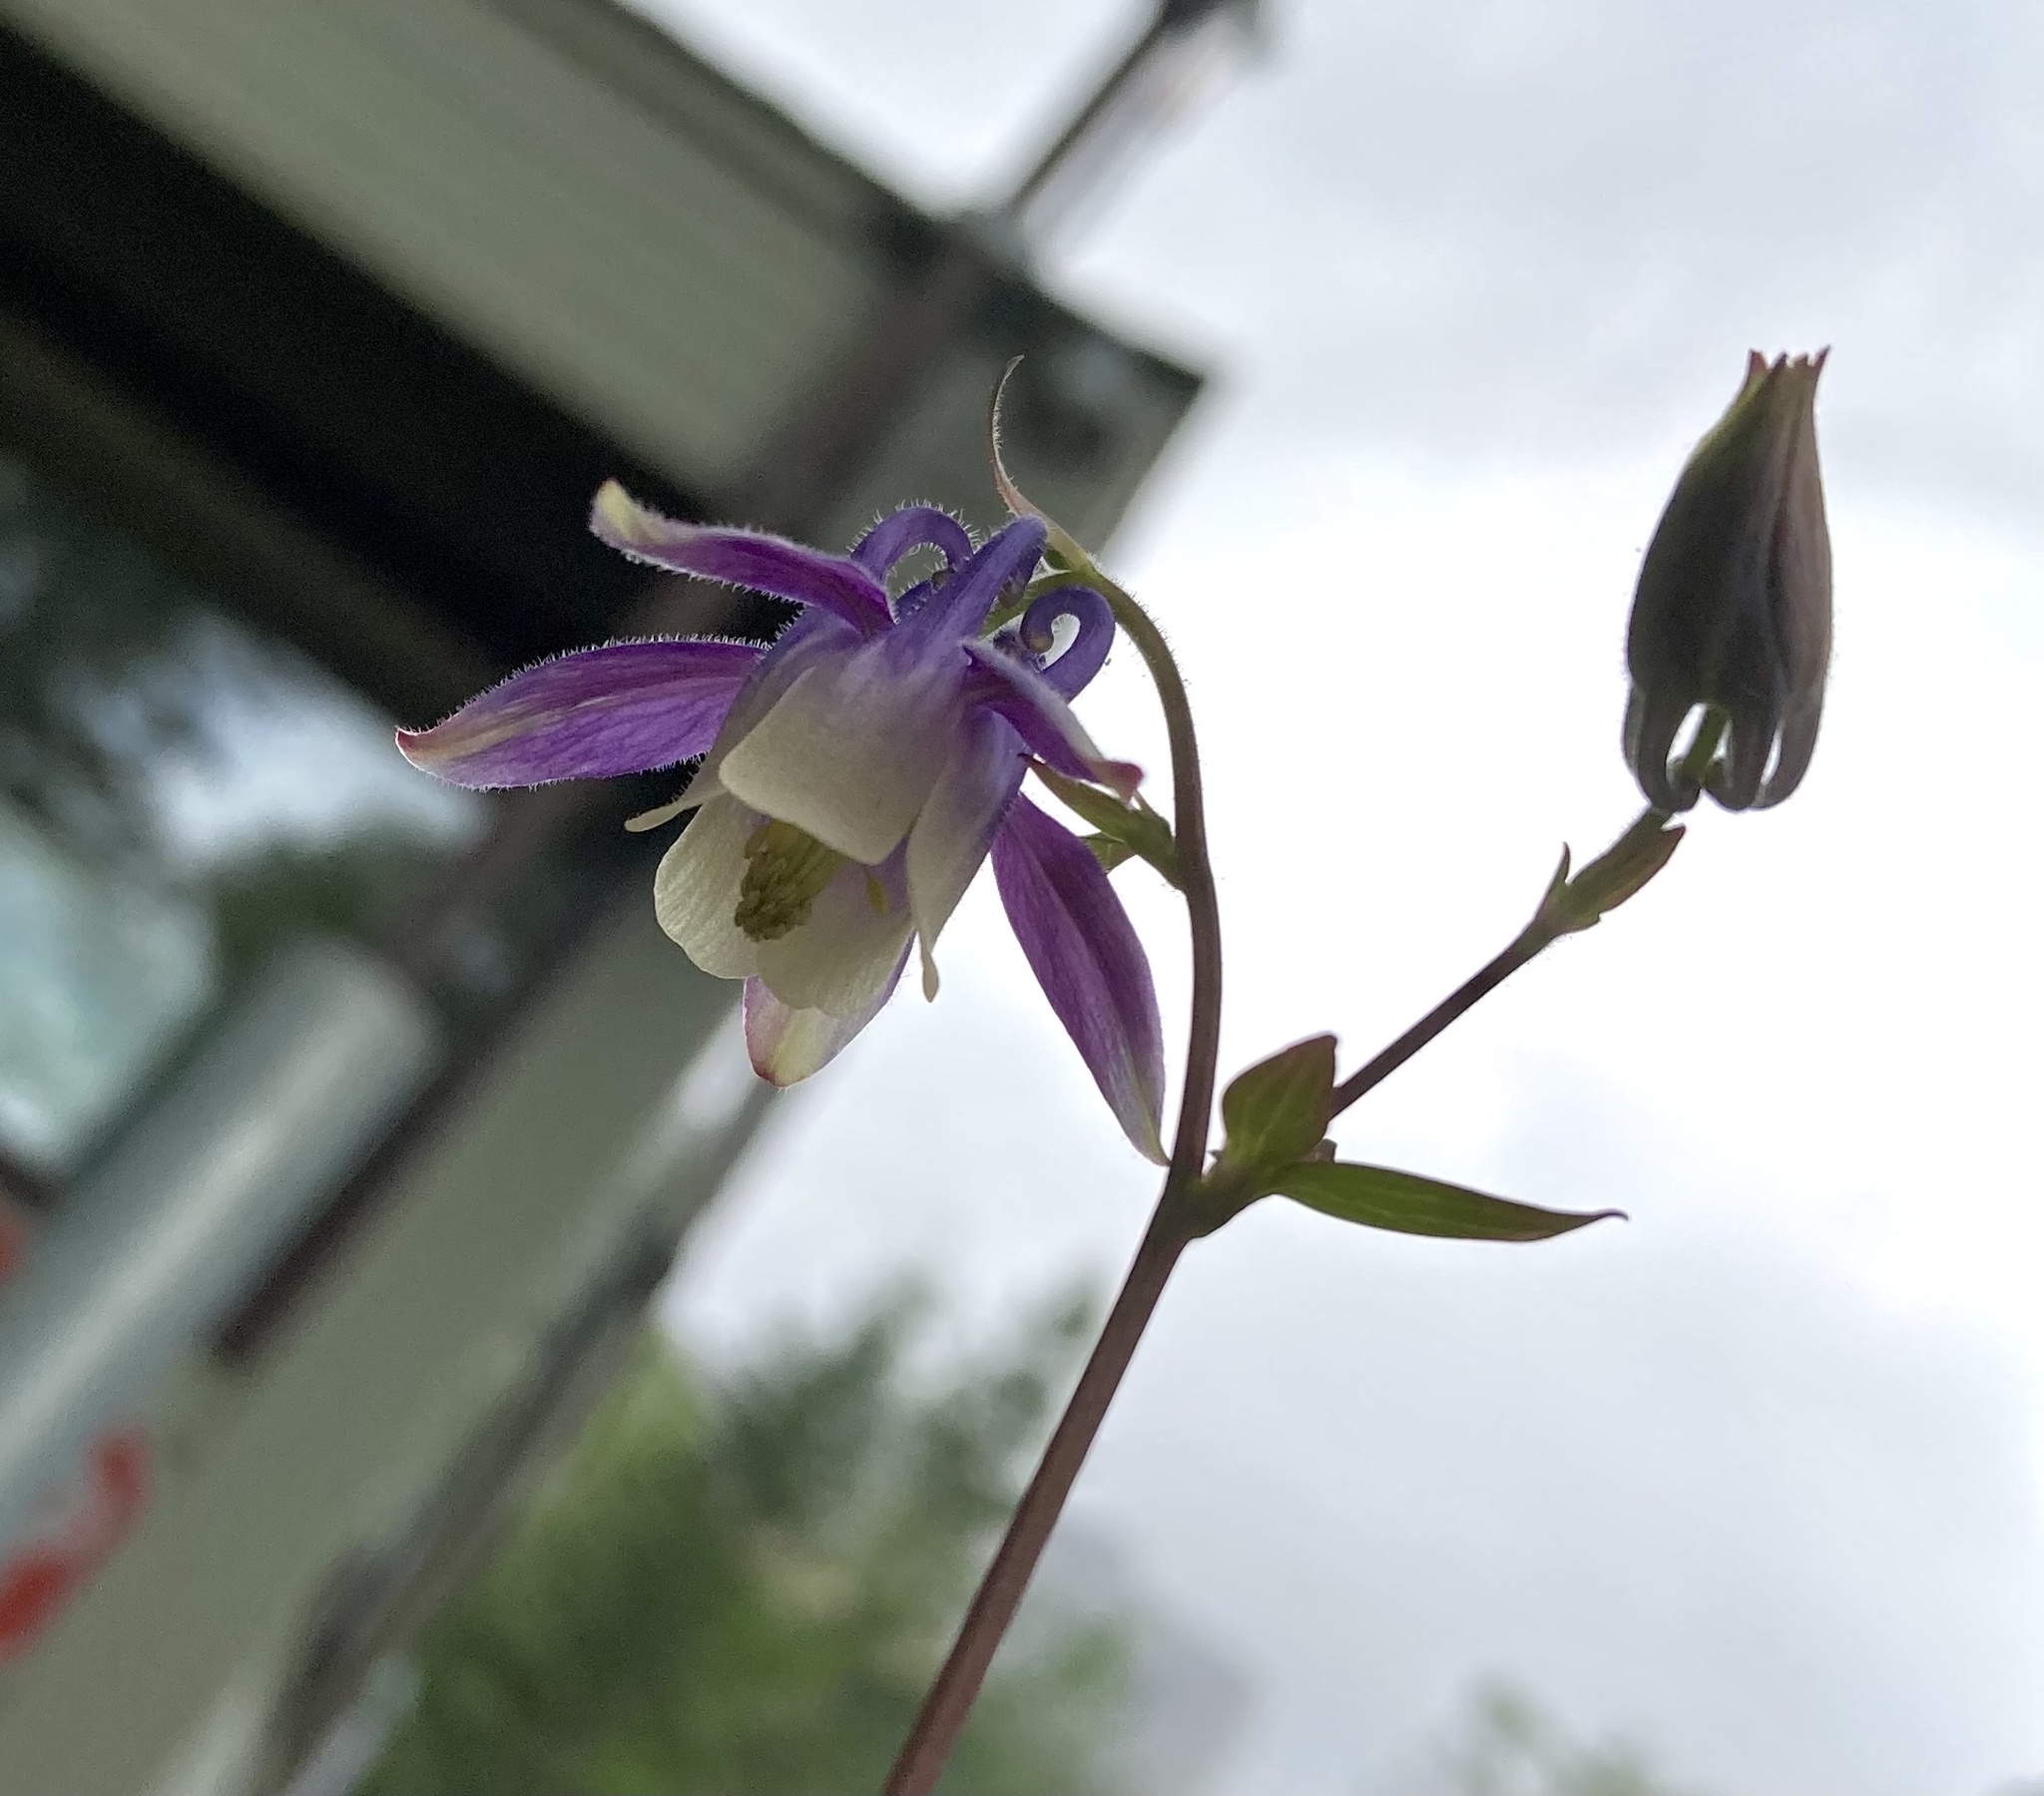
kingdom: Plantae
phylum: Tracheophyta
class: Magnoliopsida
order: Ranunculales
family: Ranunculaceae
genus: Aquilegia
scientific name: Aquilegia brevistyla
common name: Yukon columbine
